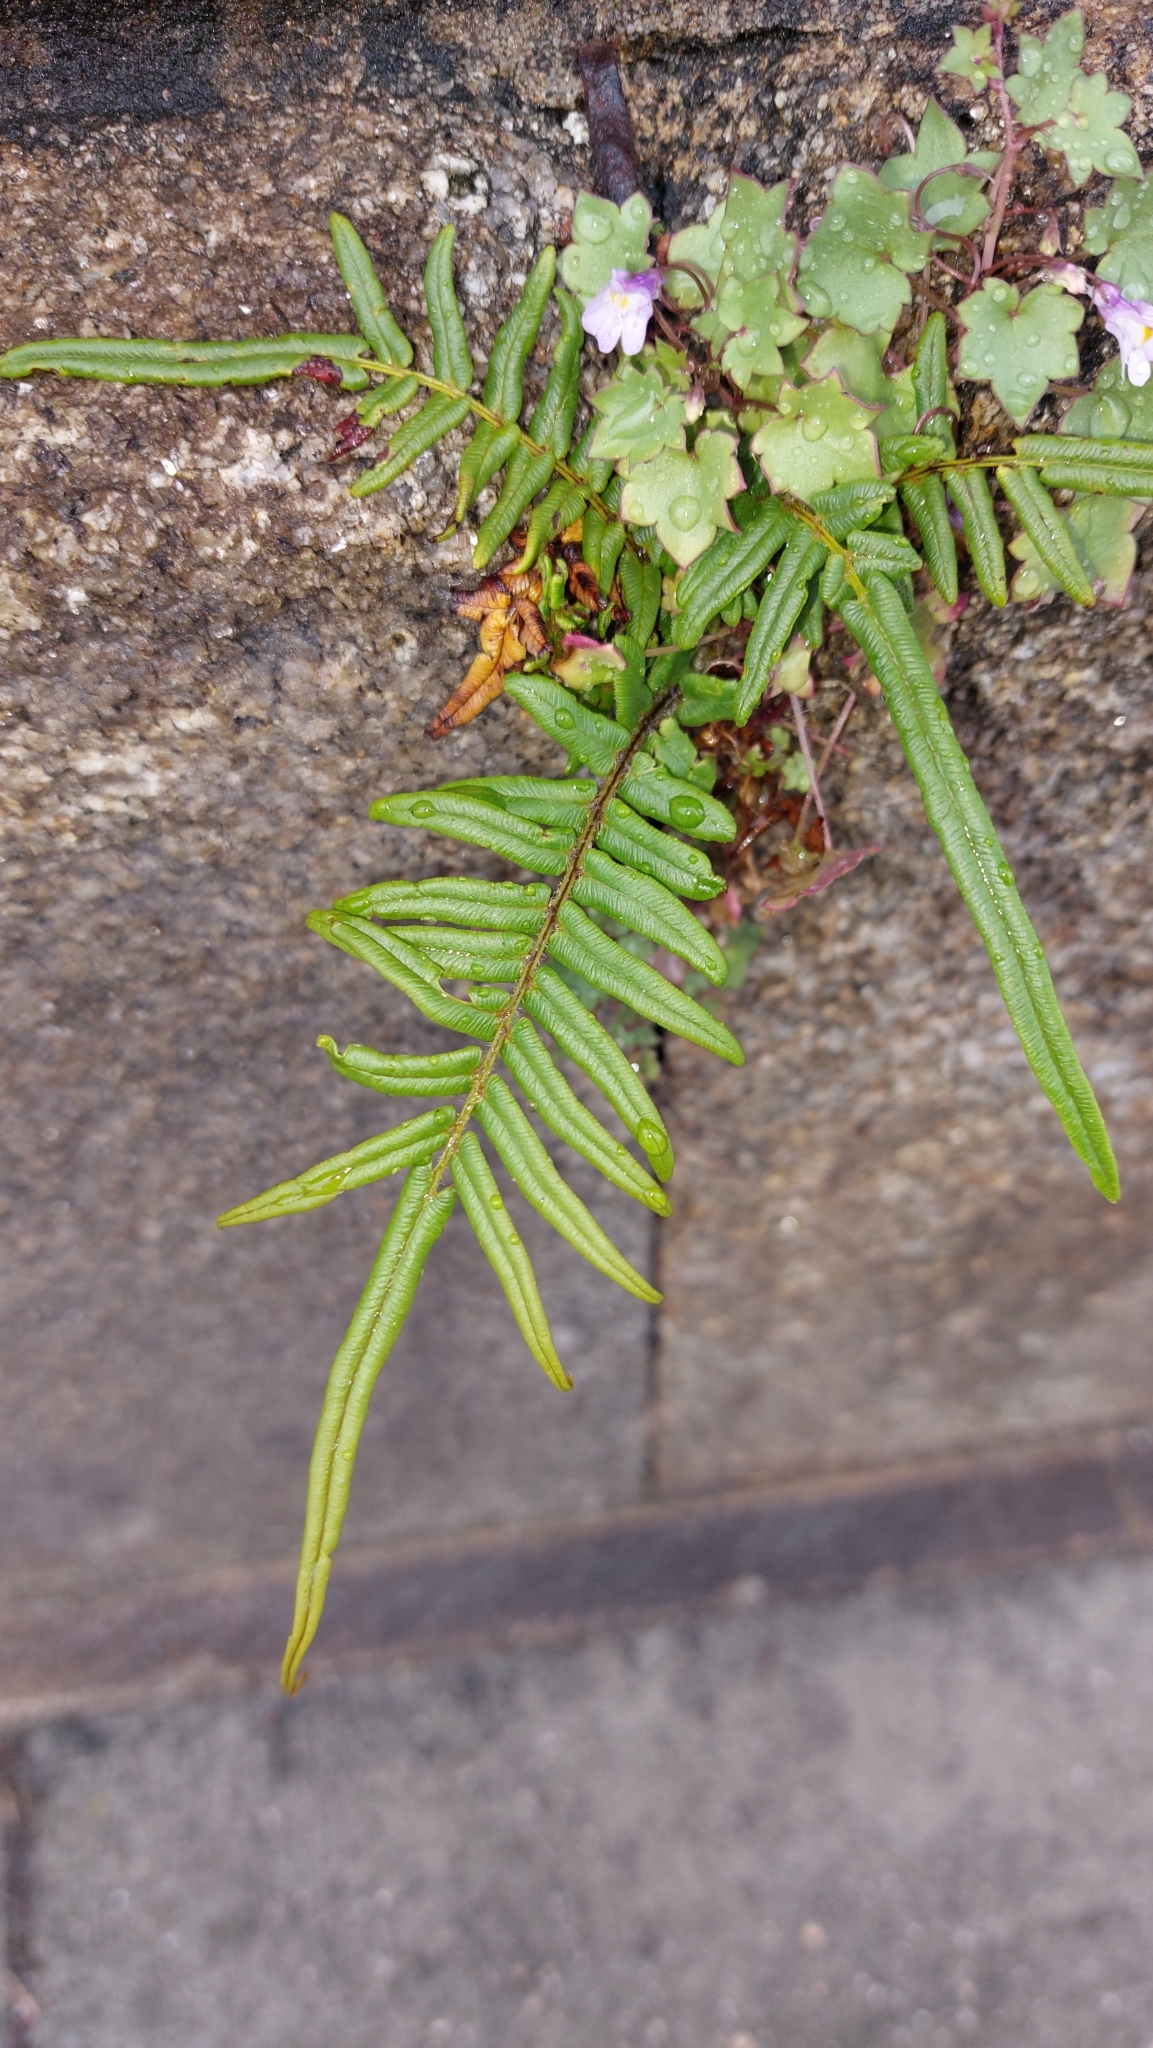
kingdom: Plantae
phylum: Tracheophyta
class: Polypodiopsida
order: Polypodiales
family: Pteridaceae
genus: Pteris
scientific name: Pteris vittata
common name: Ladder brake
